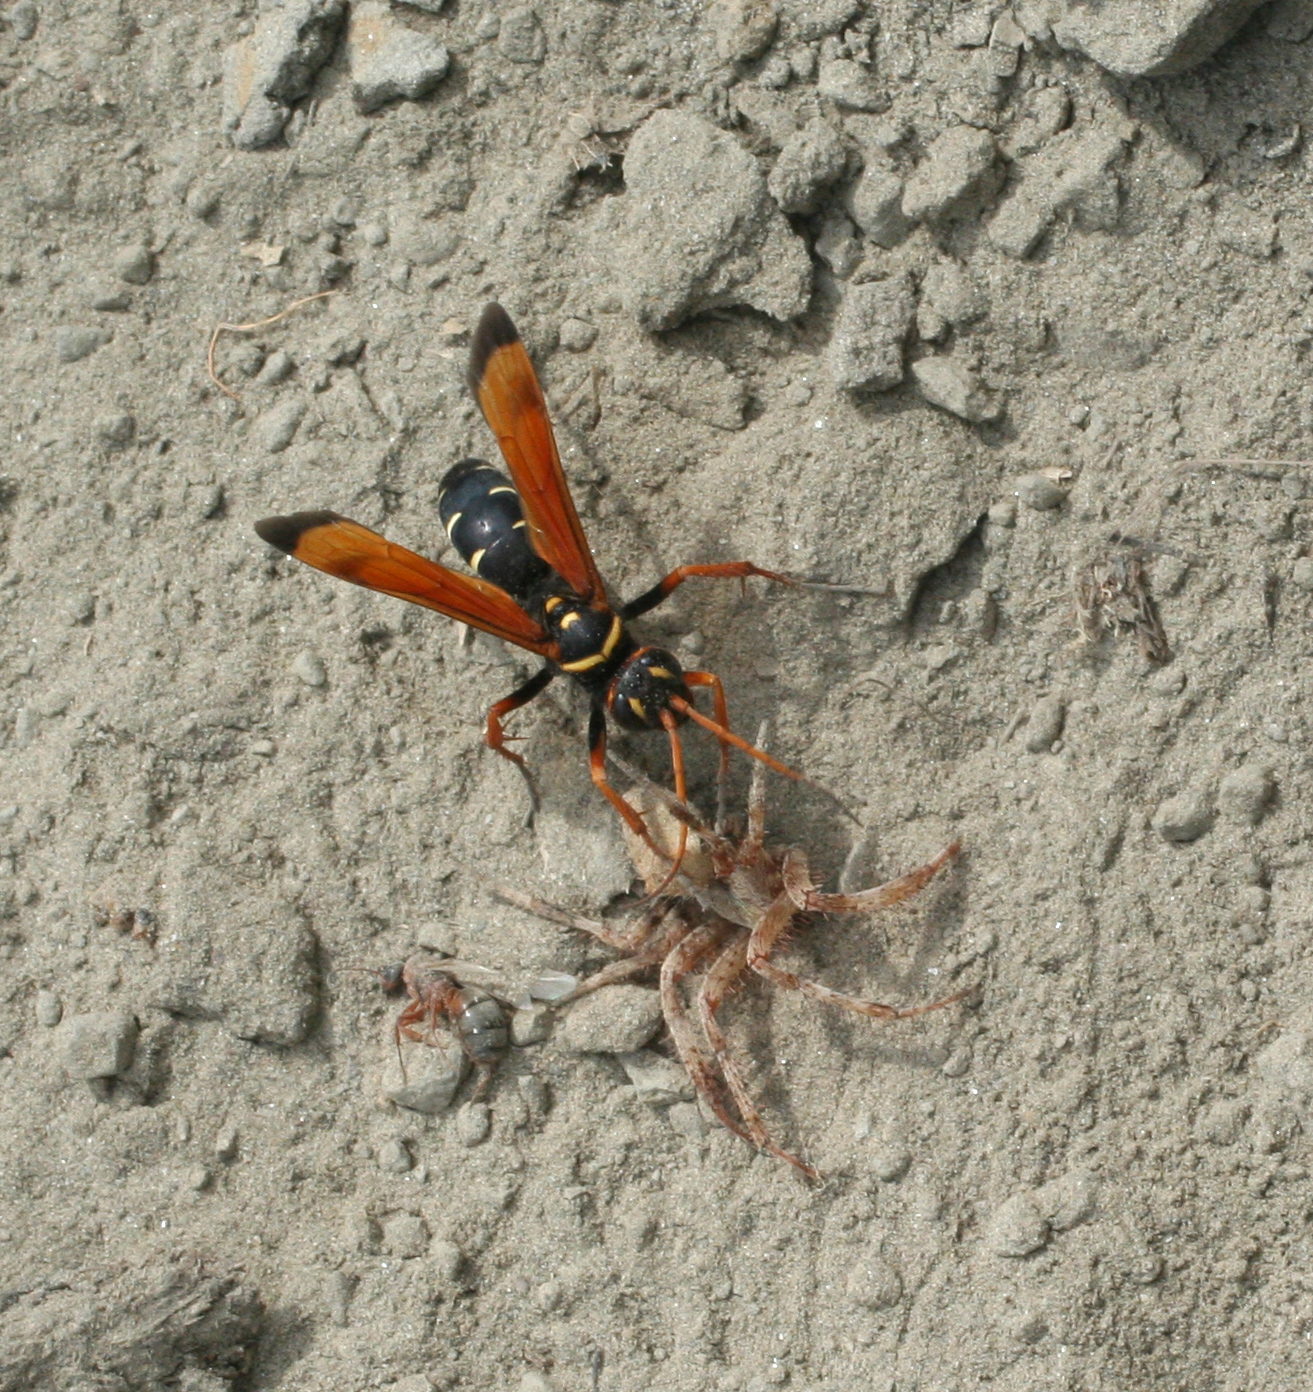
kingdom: Animalia
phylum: Arthropoda
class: Insecta
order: Hymenoptera
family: Pompilidae
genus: Parabatozonus
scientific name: Parabatozonus lacerticida
